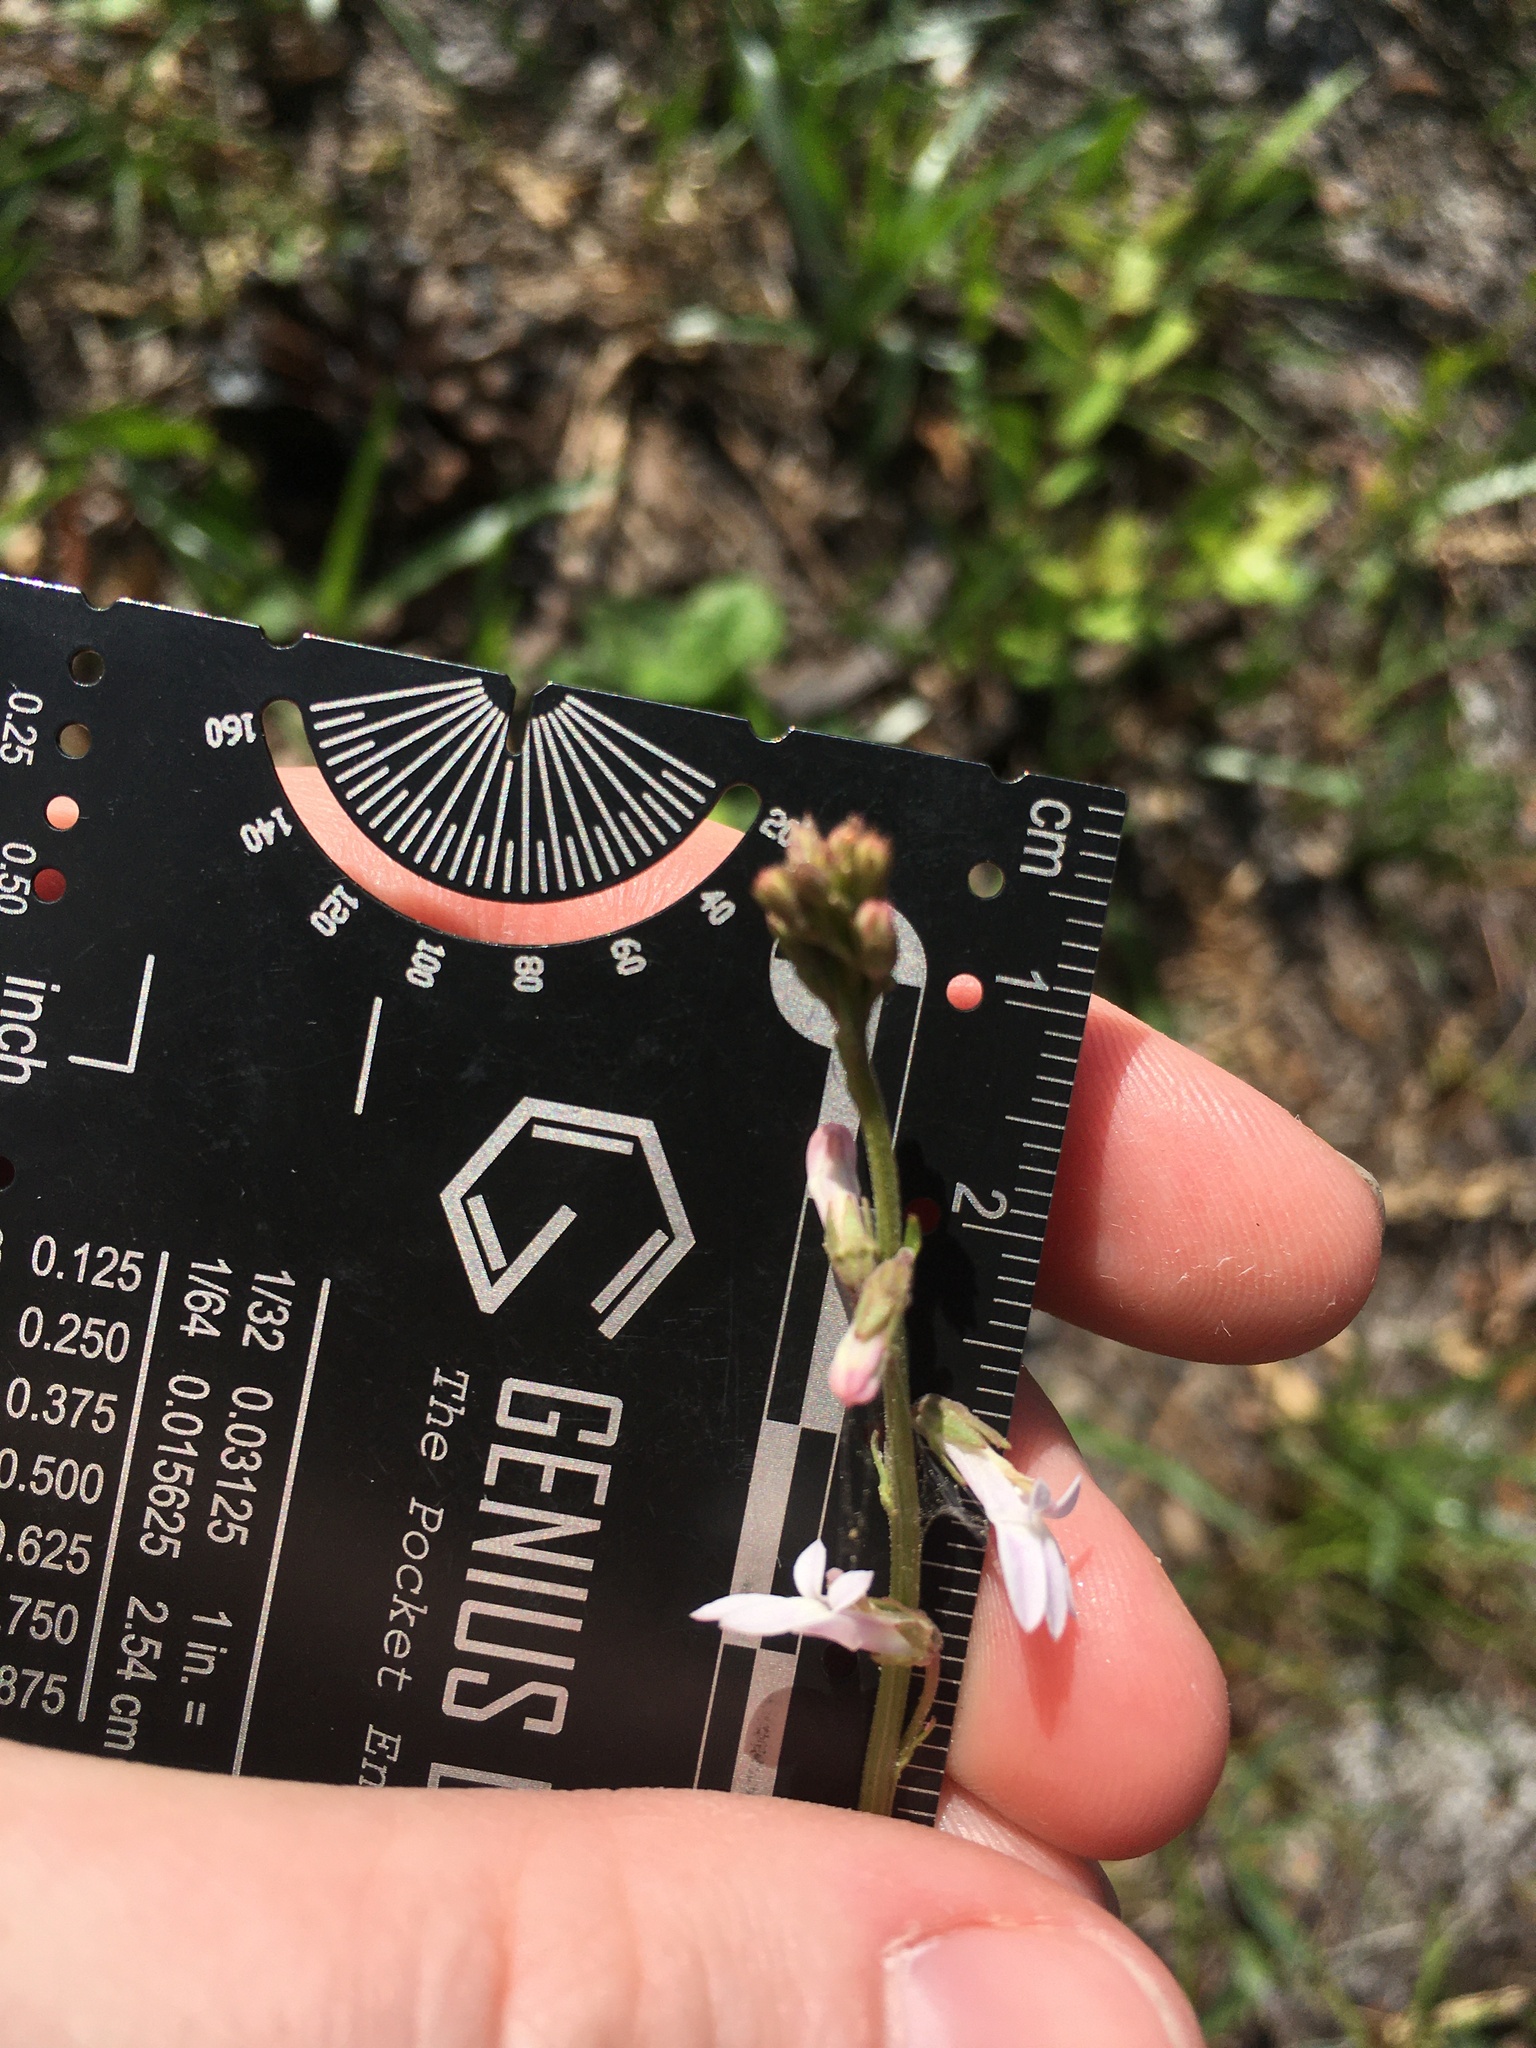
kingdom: Plantae
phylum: Tracheophyta
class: Magnoliopsida
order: Asterales
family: Campanulaceae
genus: Lobelia
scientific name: Lobelia floridana
